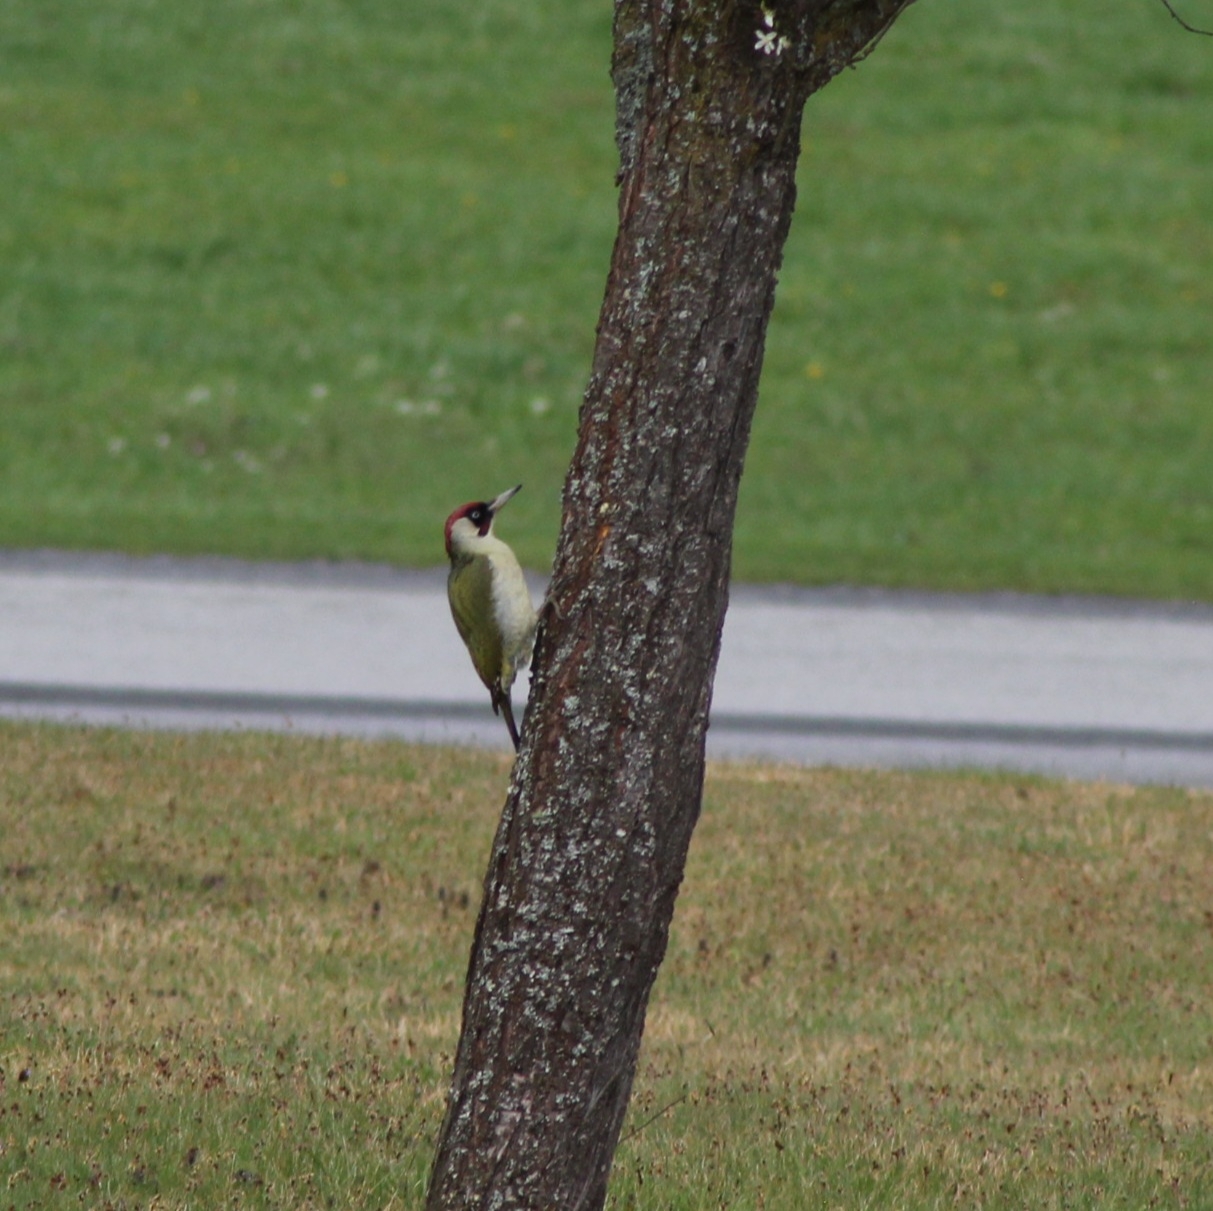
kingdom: Animalia
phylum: Chordata
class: Aves
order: Piciformes
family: Picidae
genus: Picus
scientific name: Picus viridis
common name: European green woodpecker
